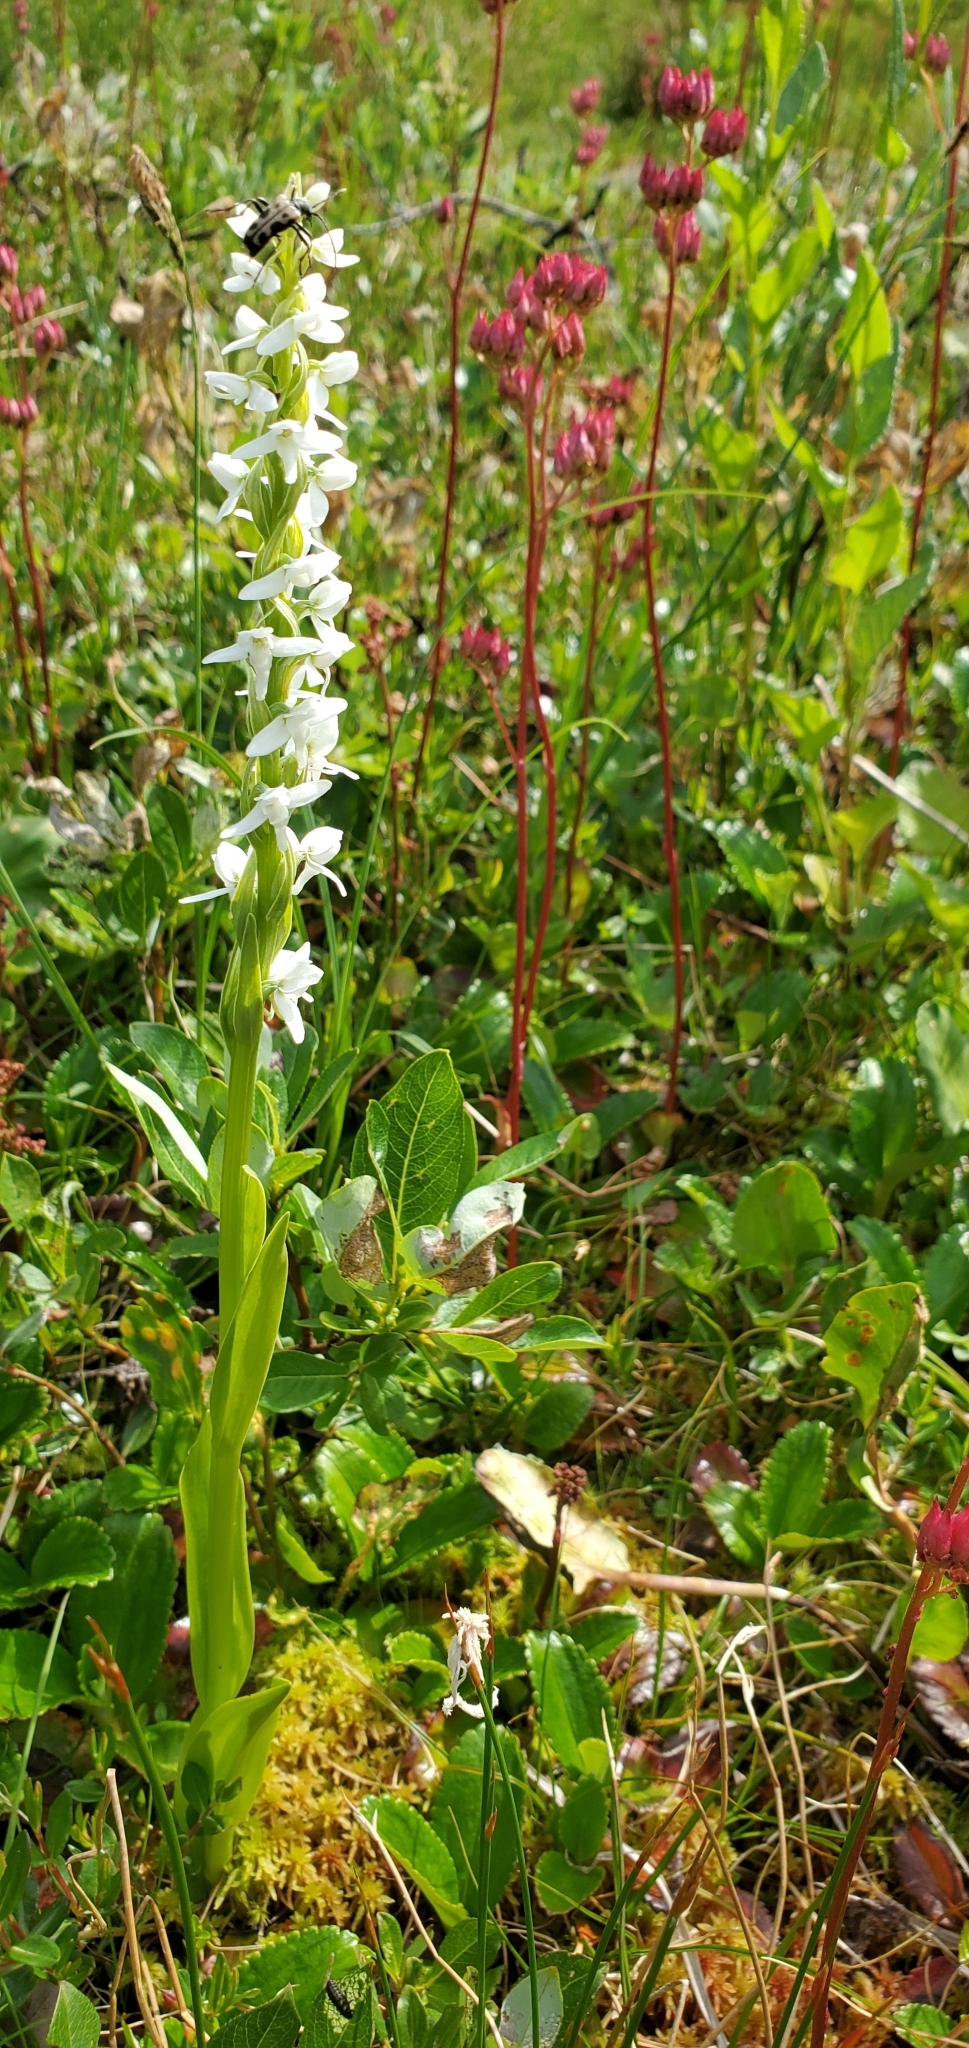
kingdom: Plantae
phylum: Tracheophyta
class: Liliopsida
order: Asparagales
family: Orchidaceae
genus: Platanthera
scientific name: Platanthera dilatata
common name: Bog candles
